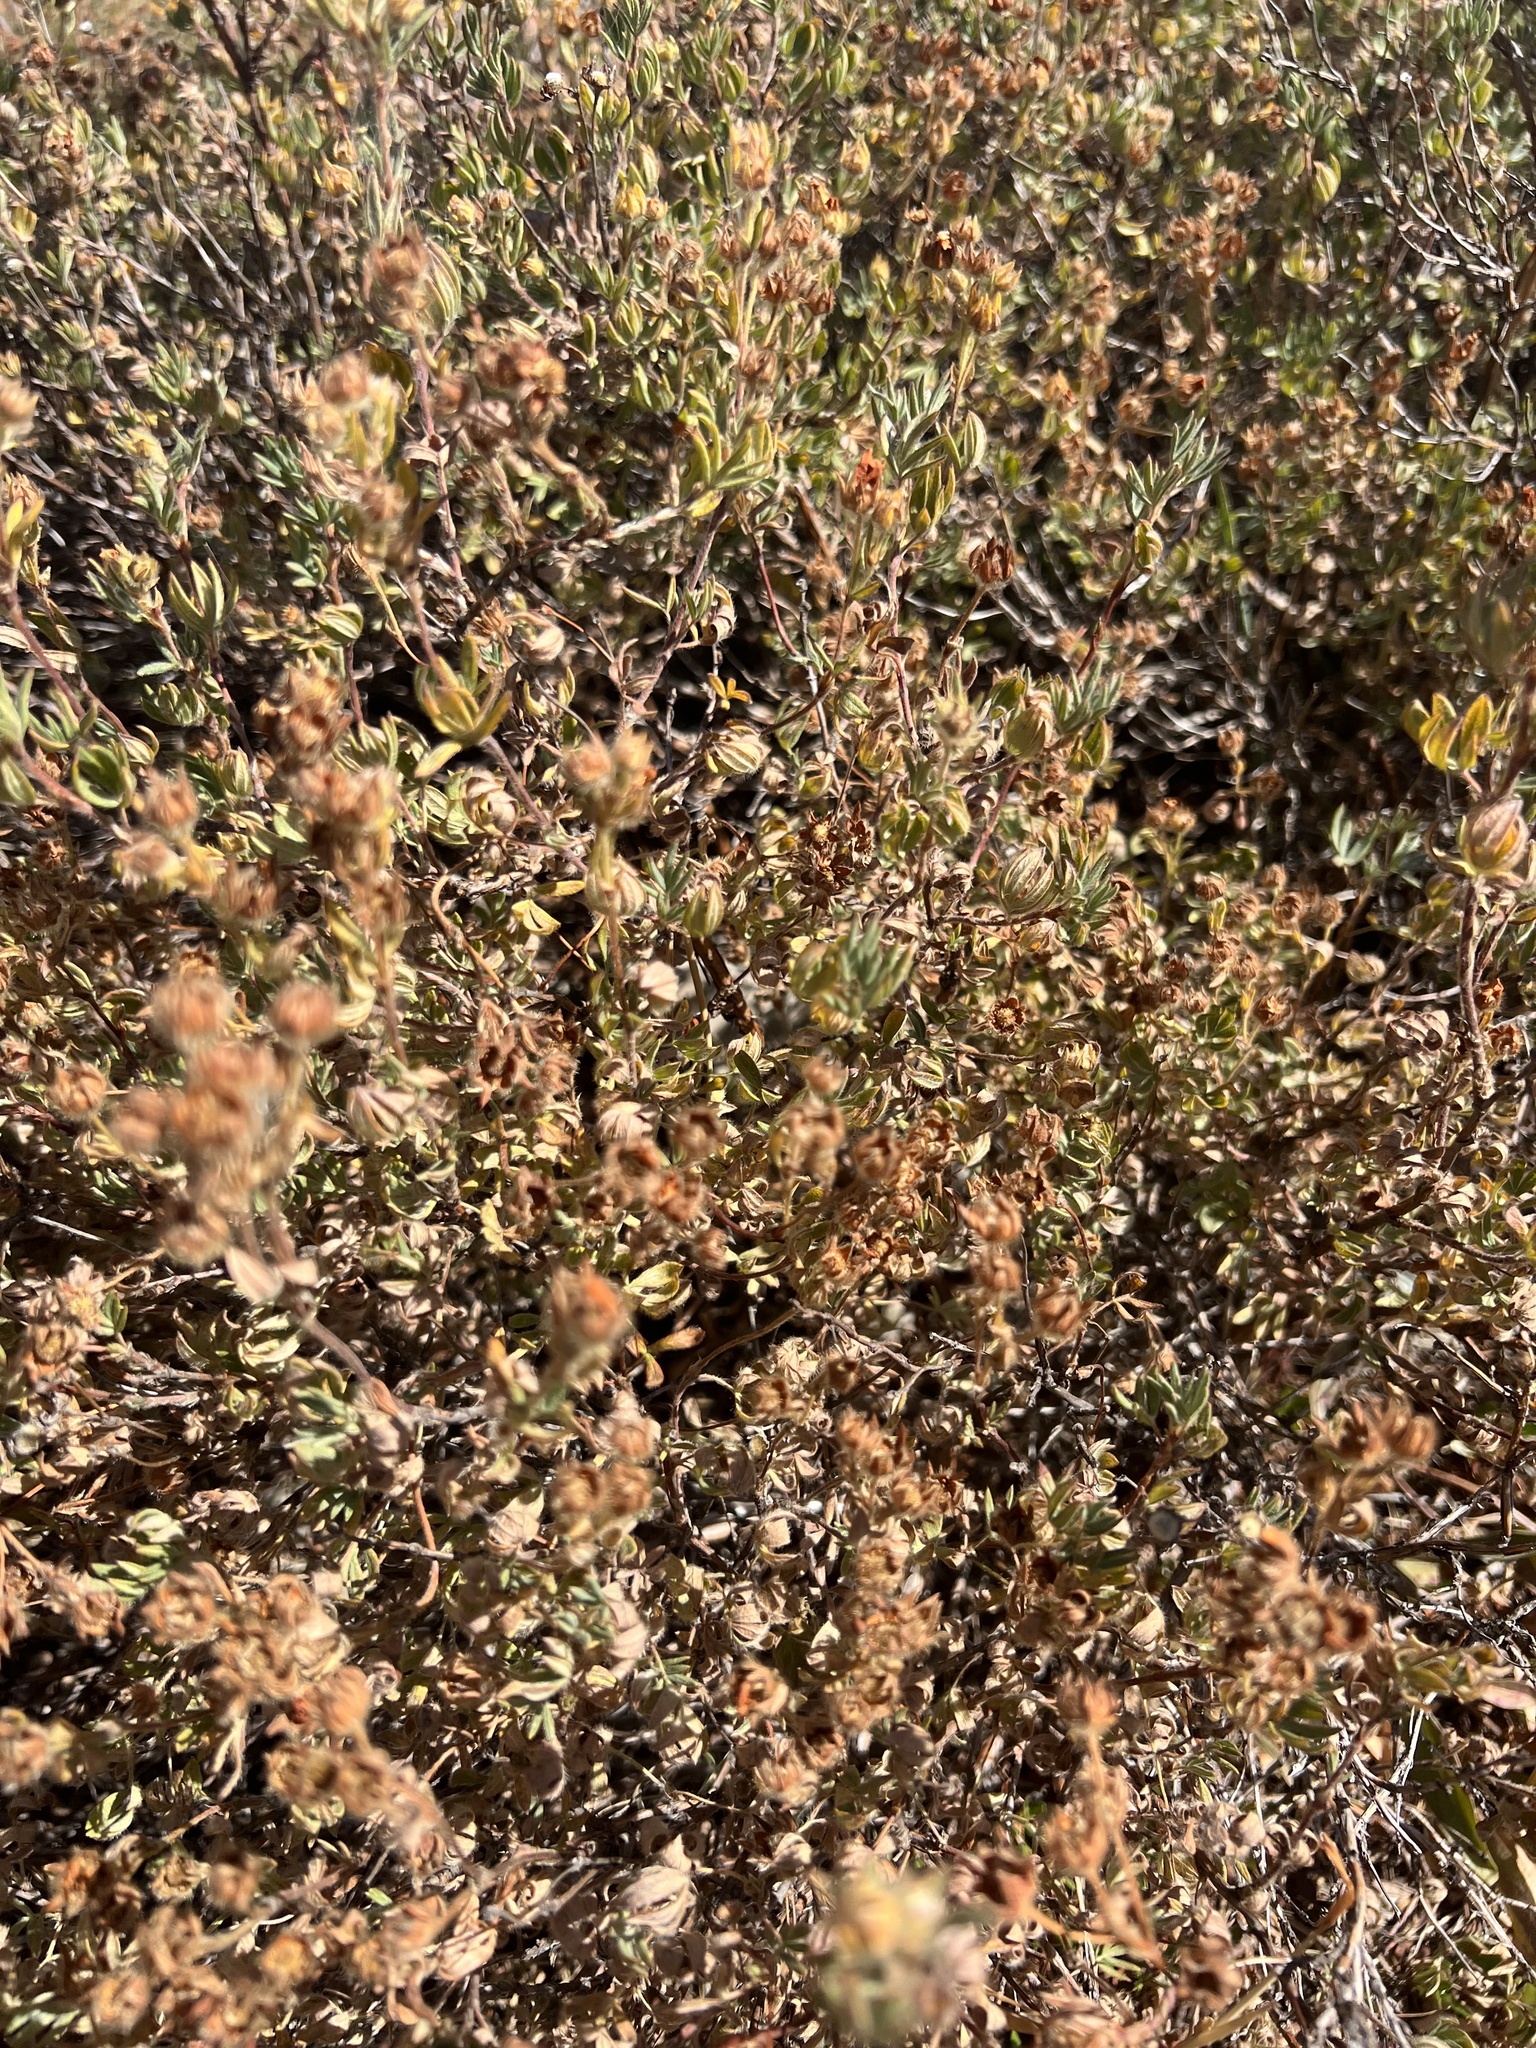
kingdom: Plantae
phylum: Tracheophyta
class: Magnoliopsida
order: Rosales
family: Rosaceae
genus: Dasiphora
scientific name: Dasiphora fruticosa
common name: Shrubby cinquefoil
